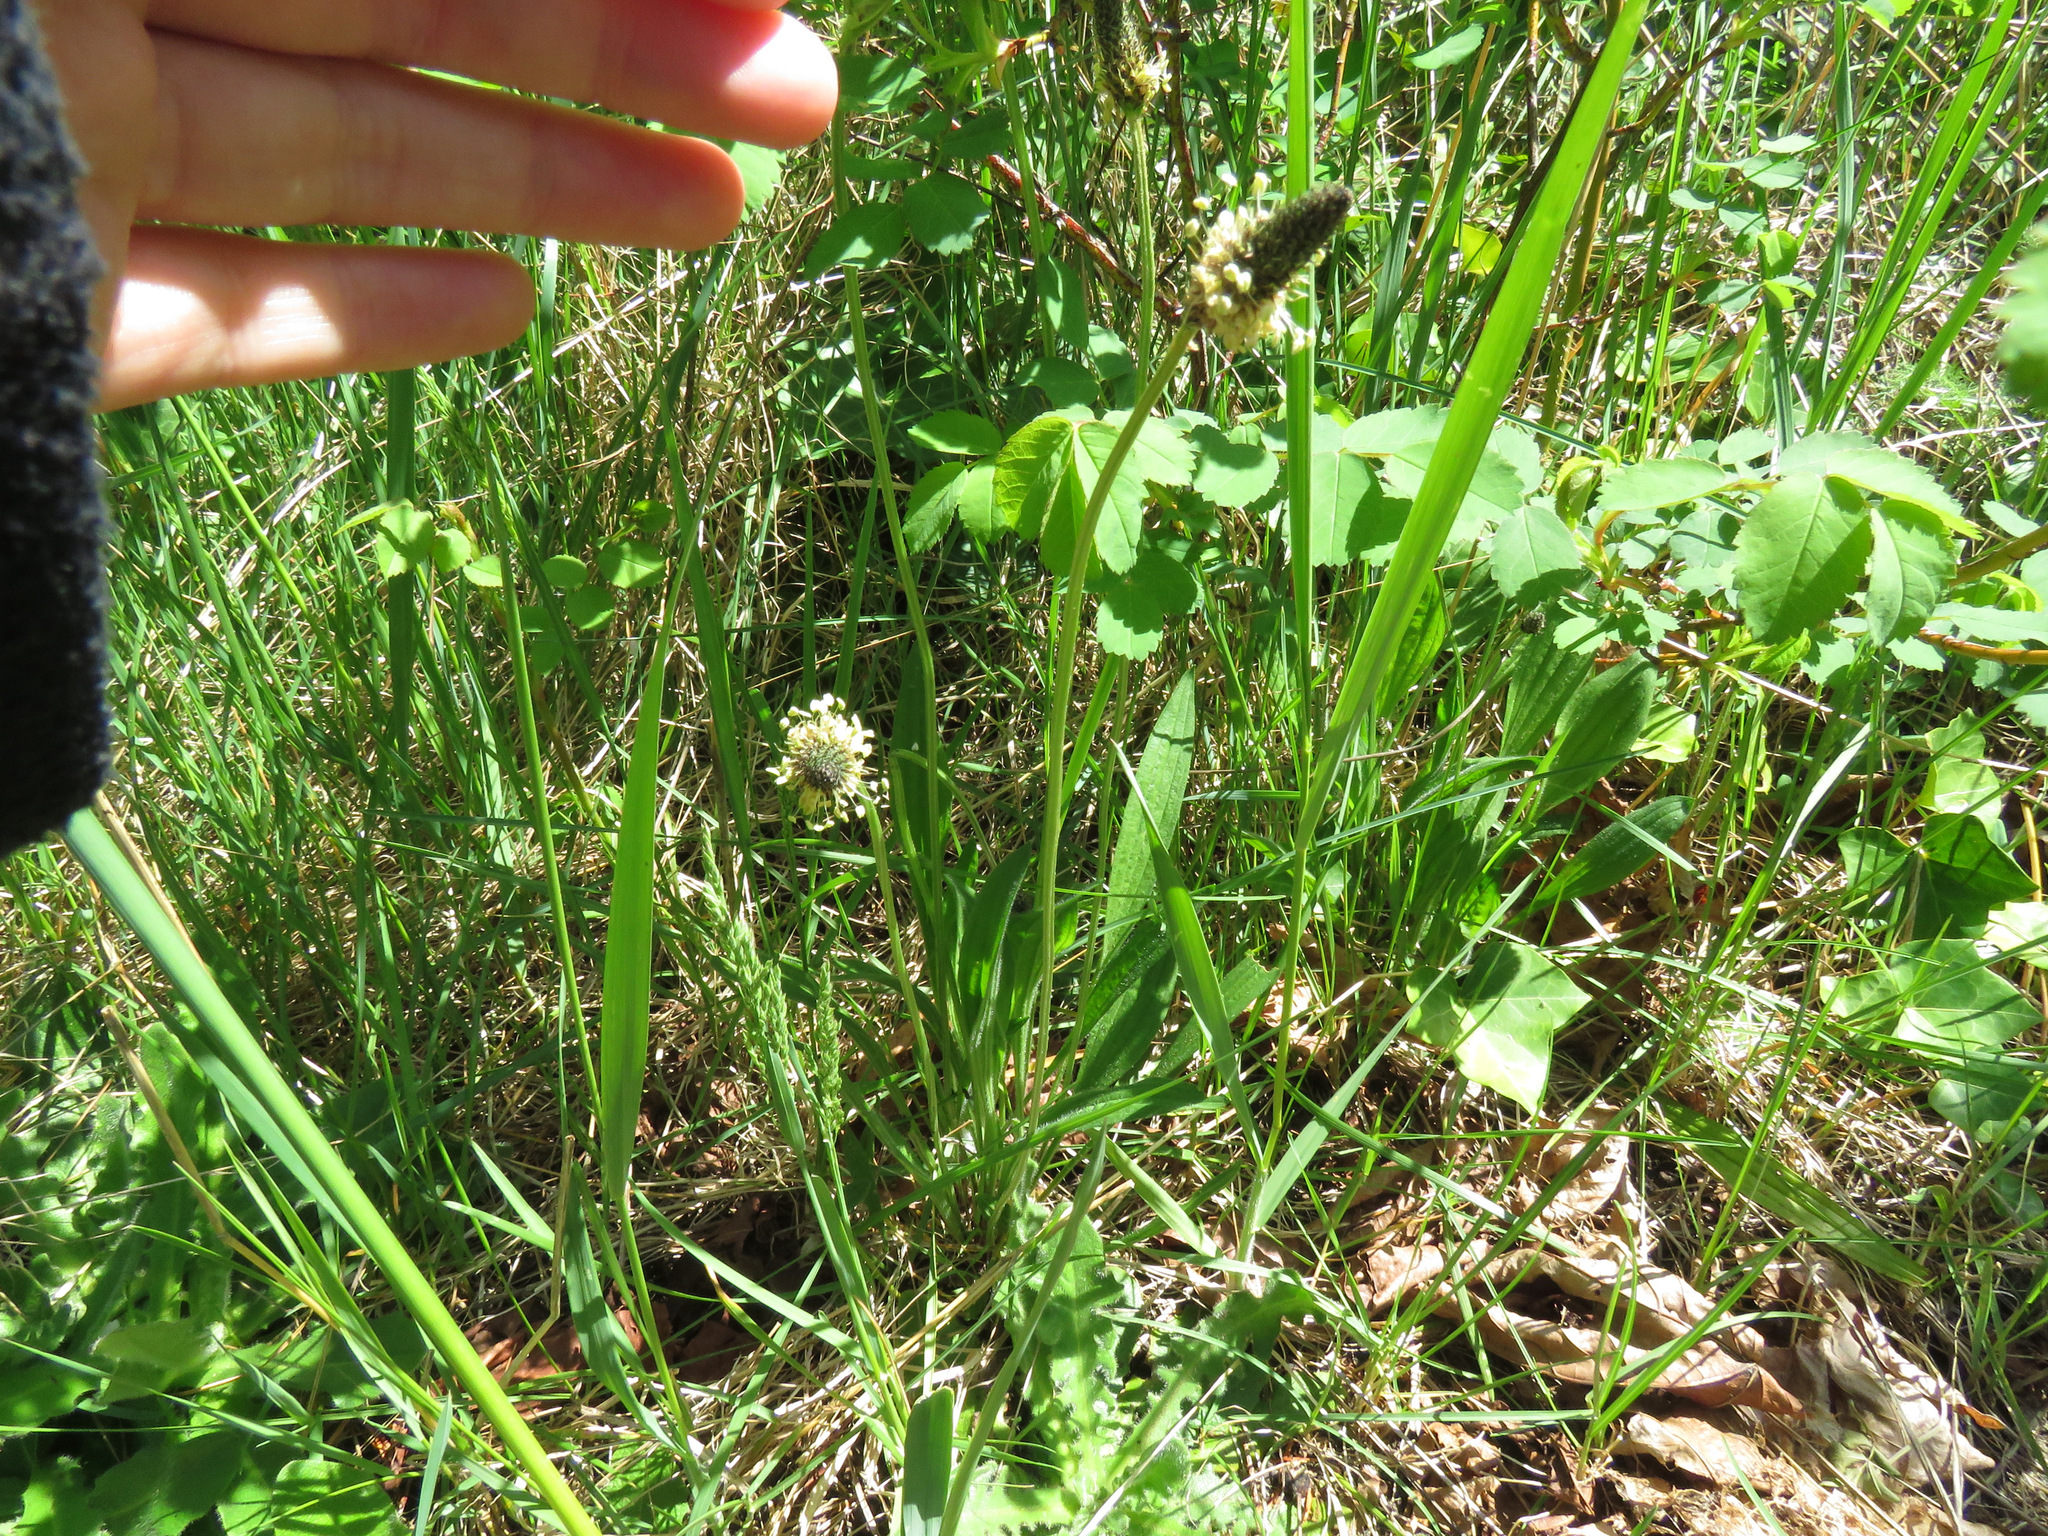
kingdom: Plantae
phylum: Tracheophyta
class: Magnoliopsida
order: Lamiales
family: Plantaginaceae
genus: Plantago
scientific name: Plantago lanceolata
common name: Ribwort plantain
